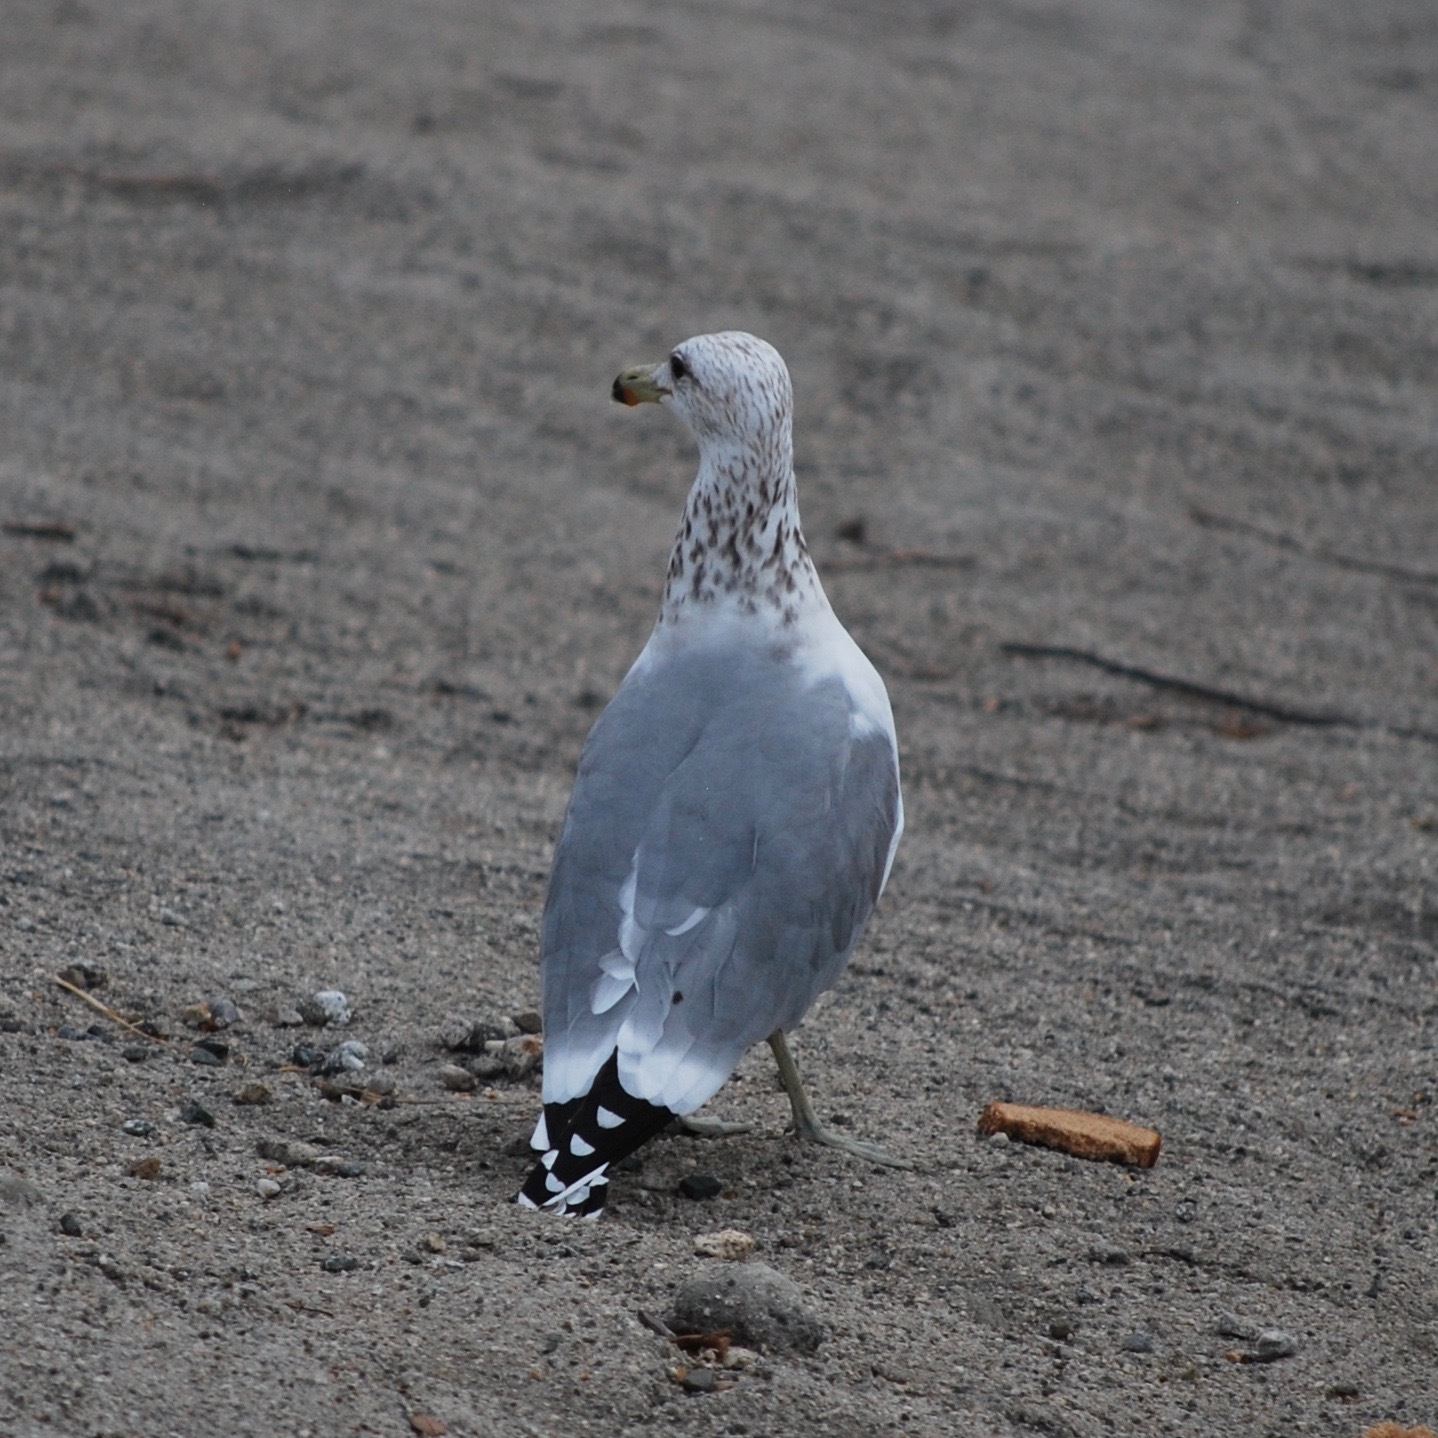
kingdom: Animalia
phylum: Chordata
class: Aves
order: Charadriiformes
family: Laridae
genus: Larus
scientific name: Larus californicus
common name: California gull
